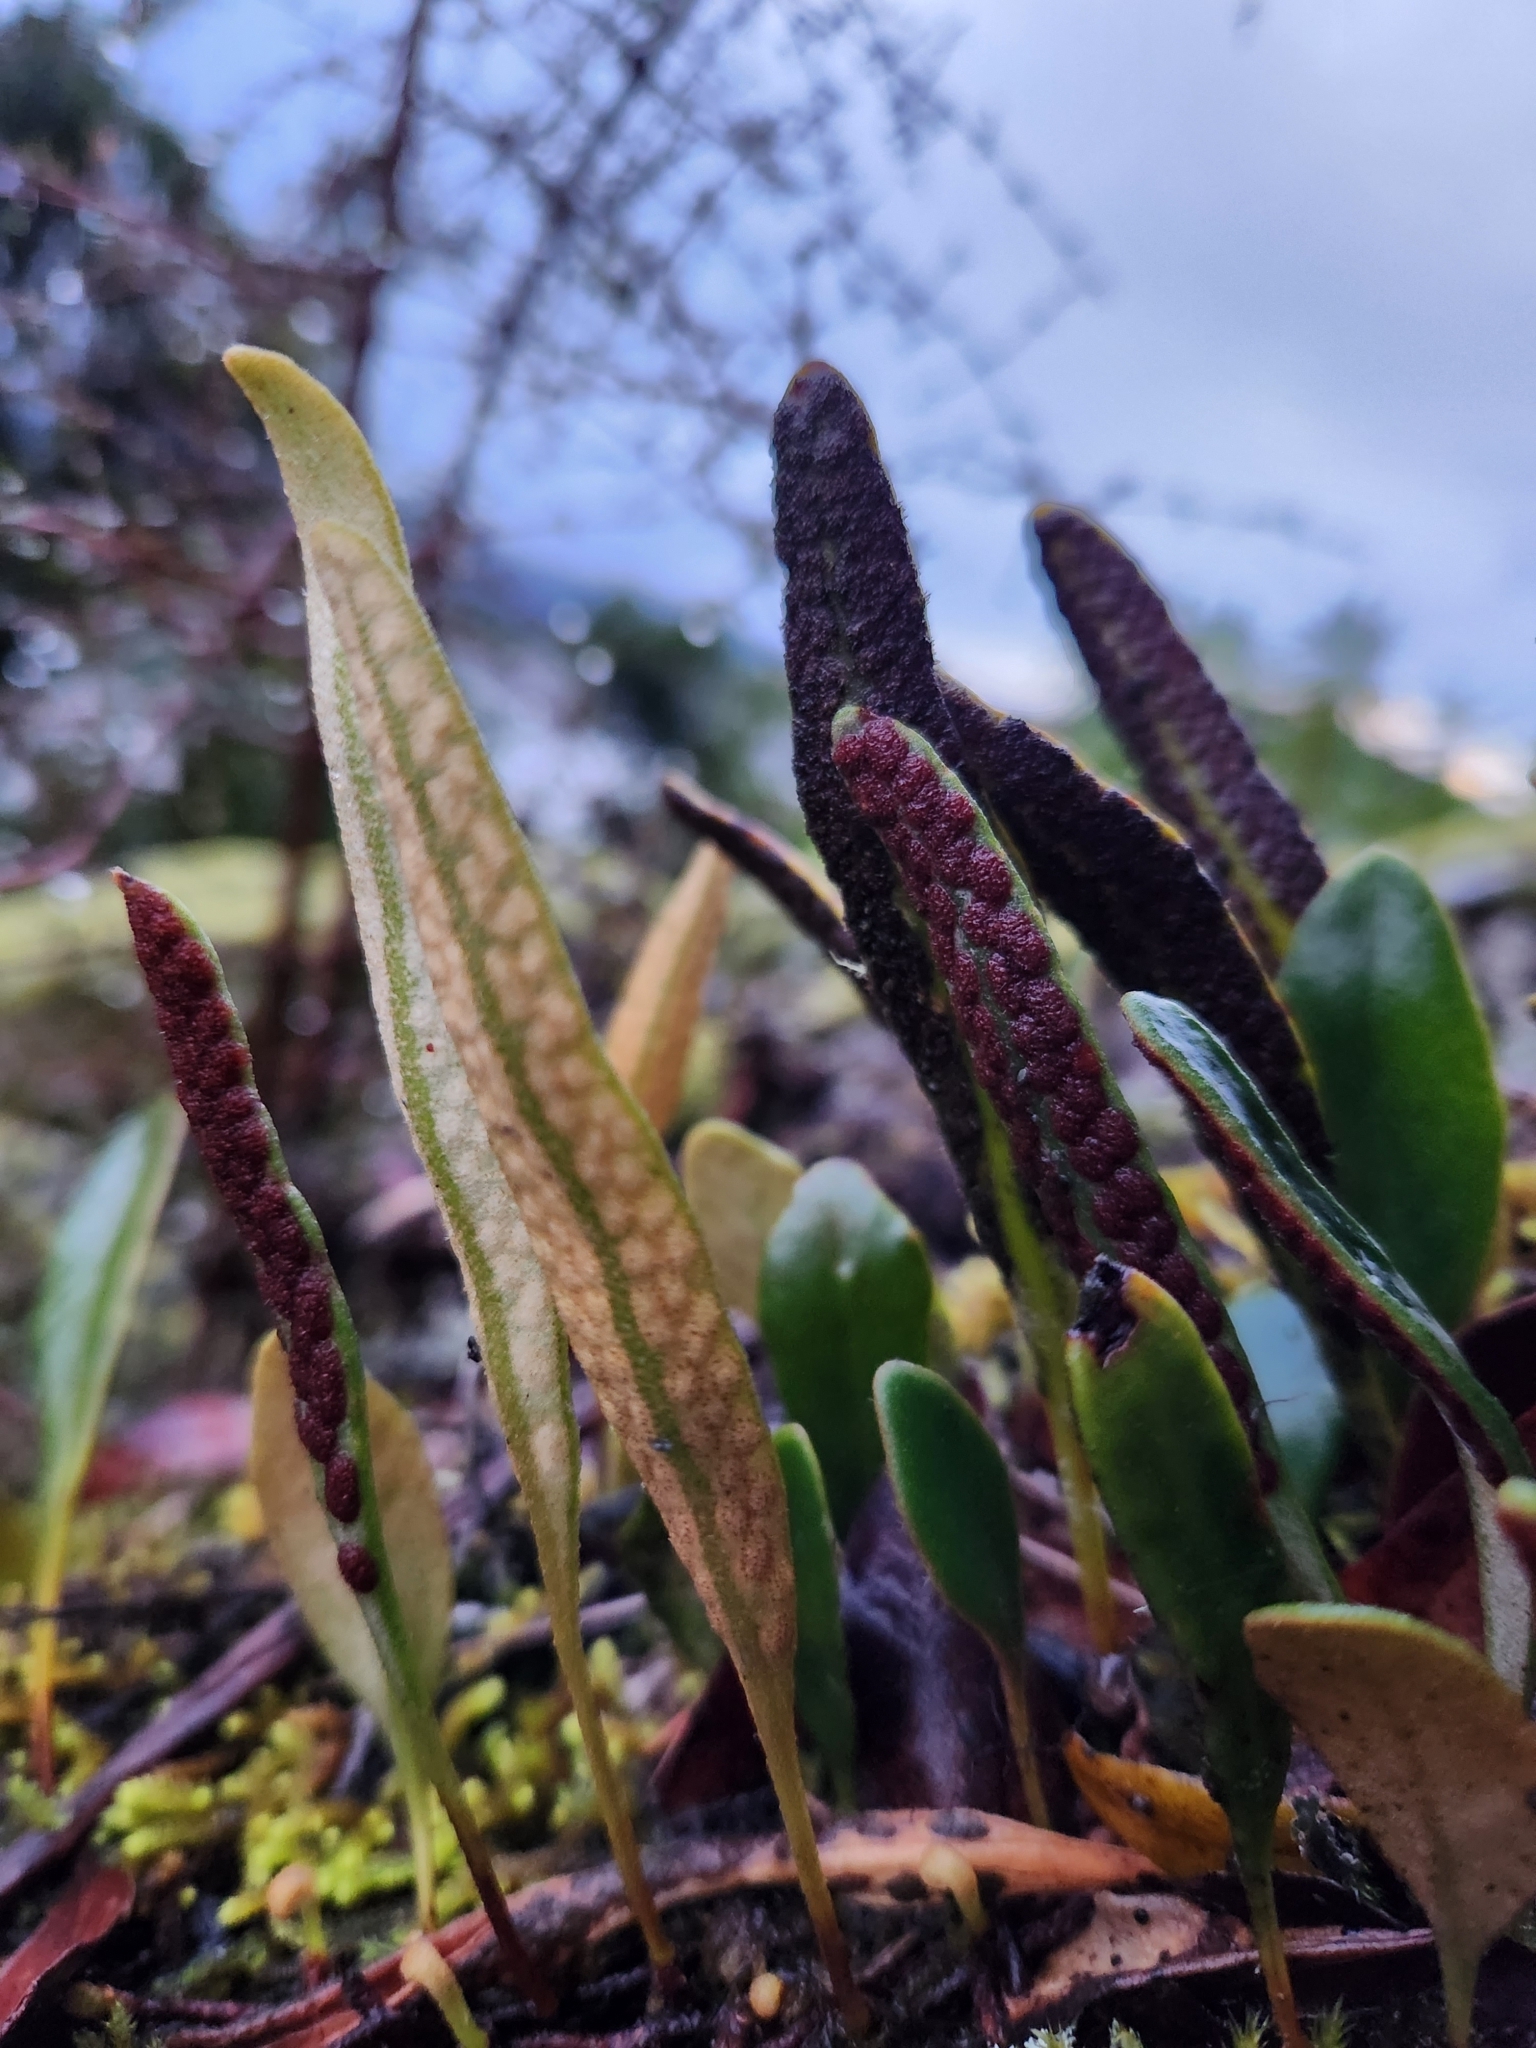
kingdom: Plantae
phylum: Tracheophyta
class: Polypodiopsida
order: Polypodiales
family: Polypodiaceae
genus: Pyrrosia
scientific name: Pyrrosia eleagnifolia
